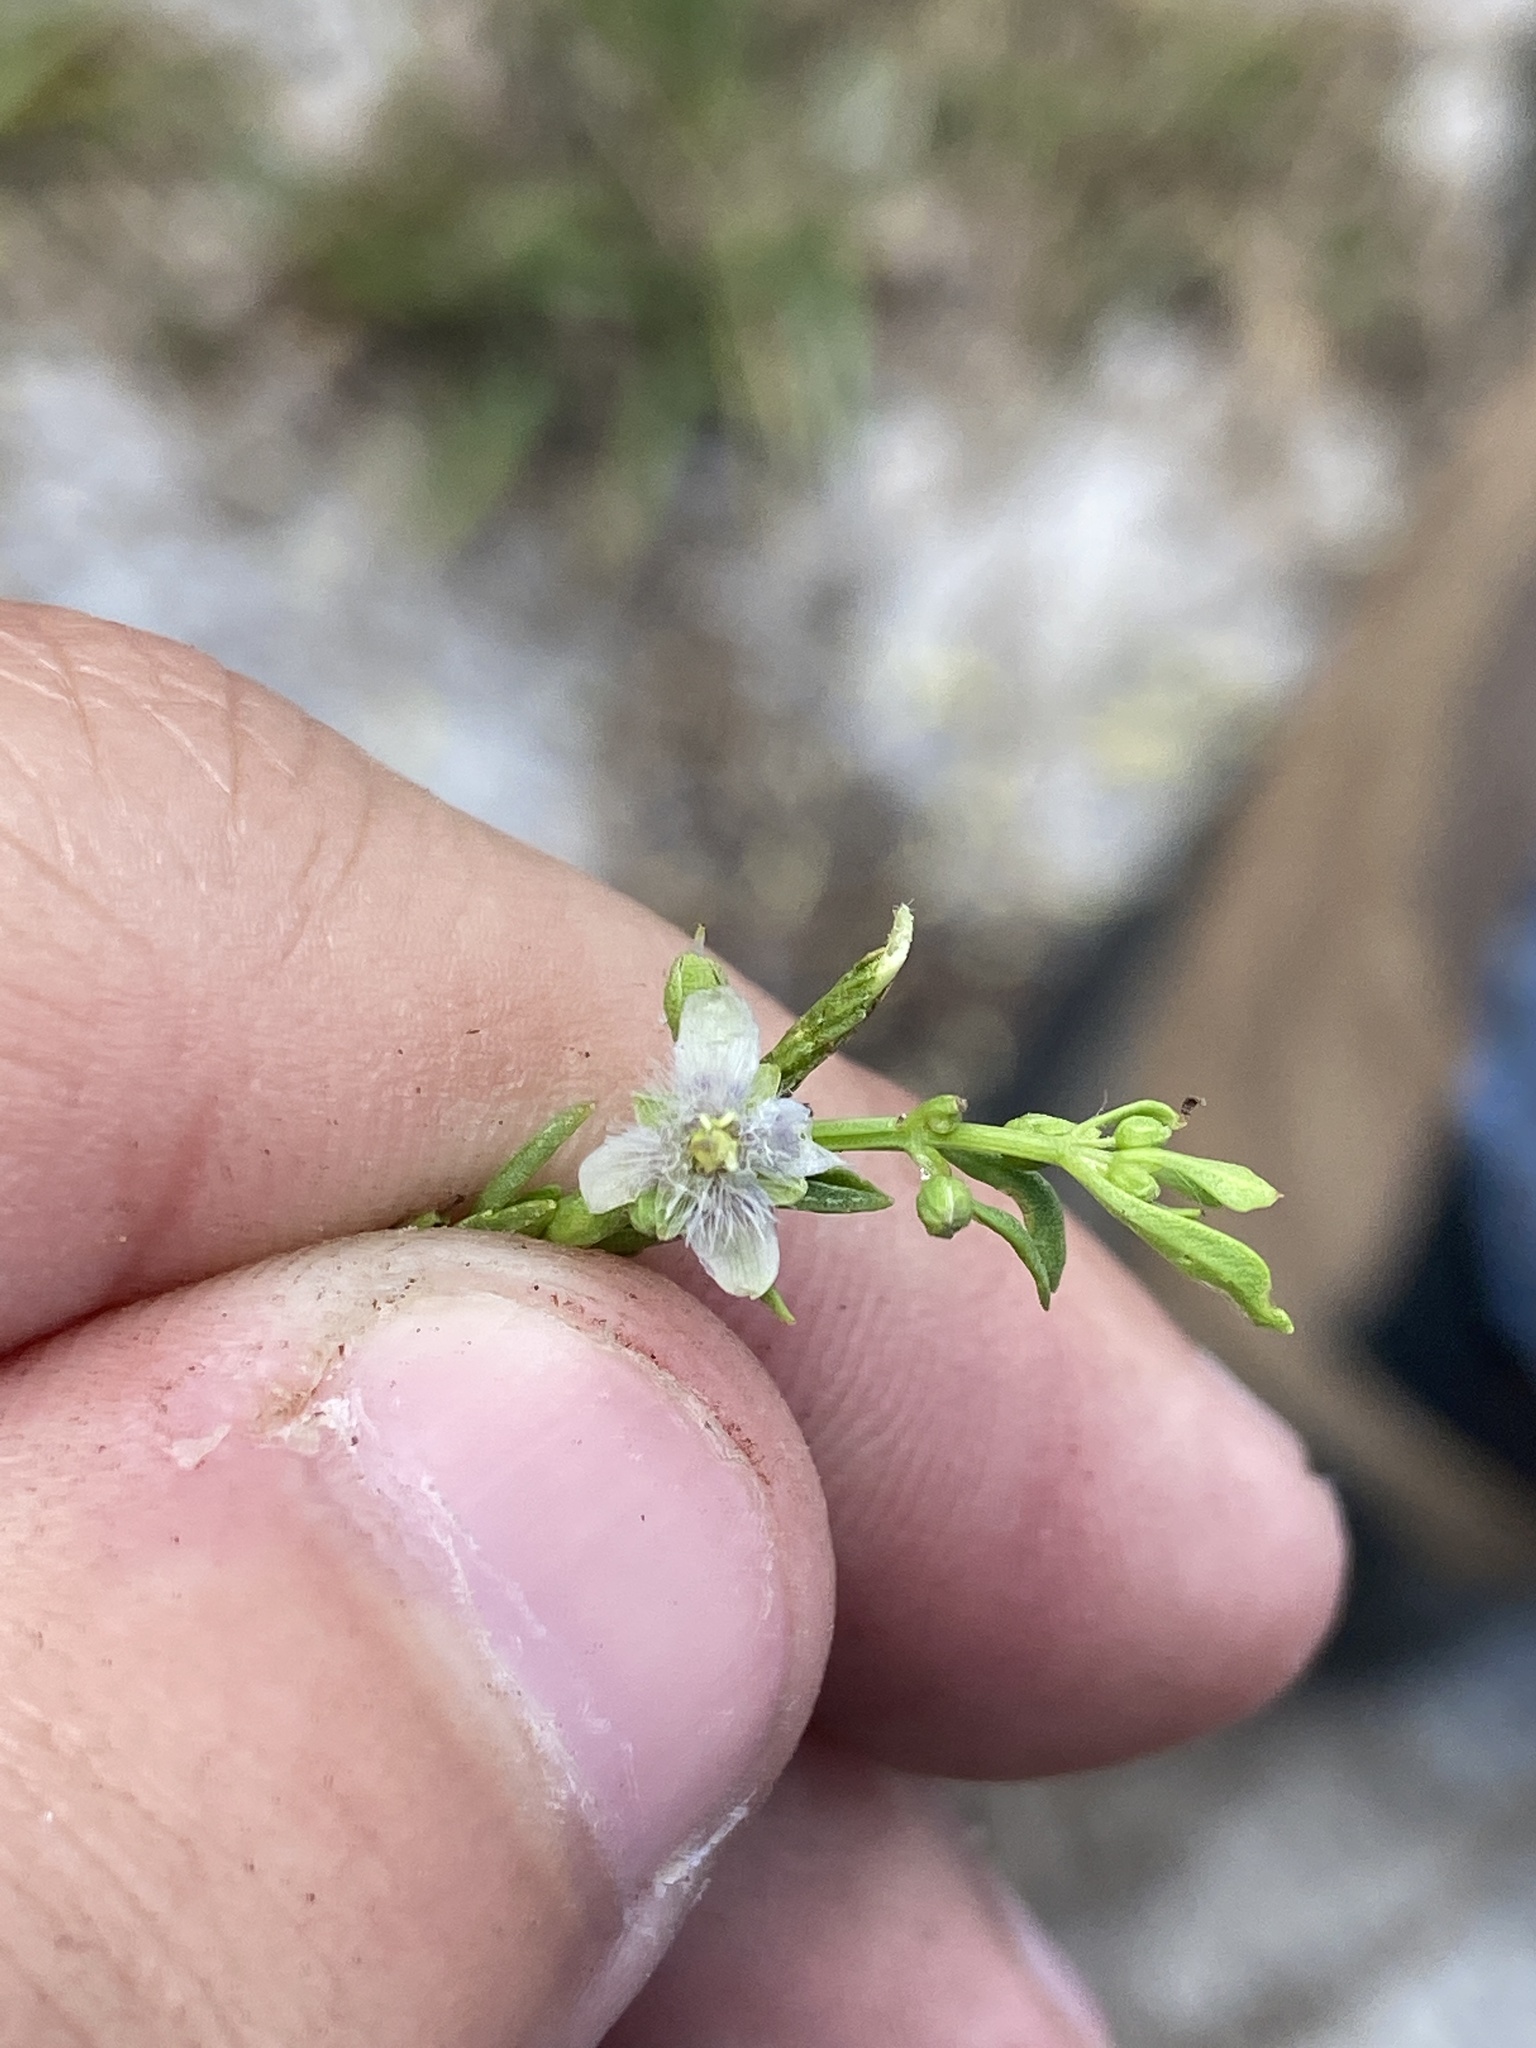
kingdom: Plantae
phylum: Tracheophyta
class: Magnoliopsida
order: Lamiales
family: Plantaginaceae
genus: Scoparia
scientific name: Scoparia dulcis
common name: Scoparia-weed
